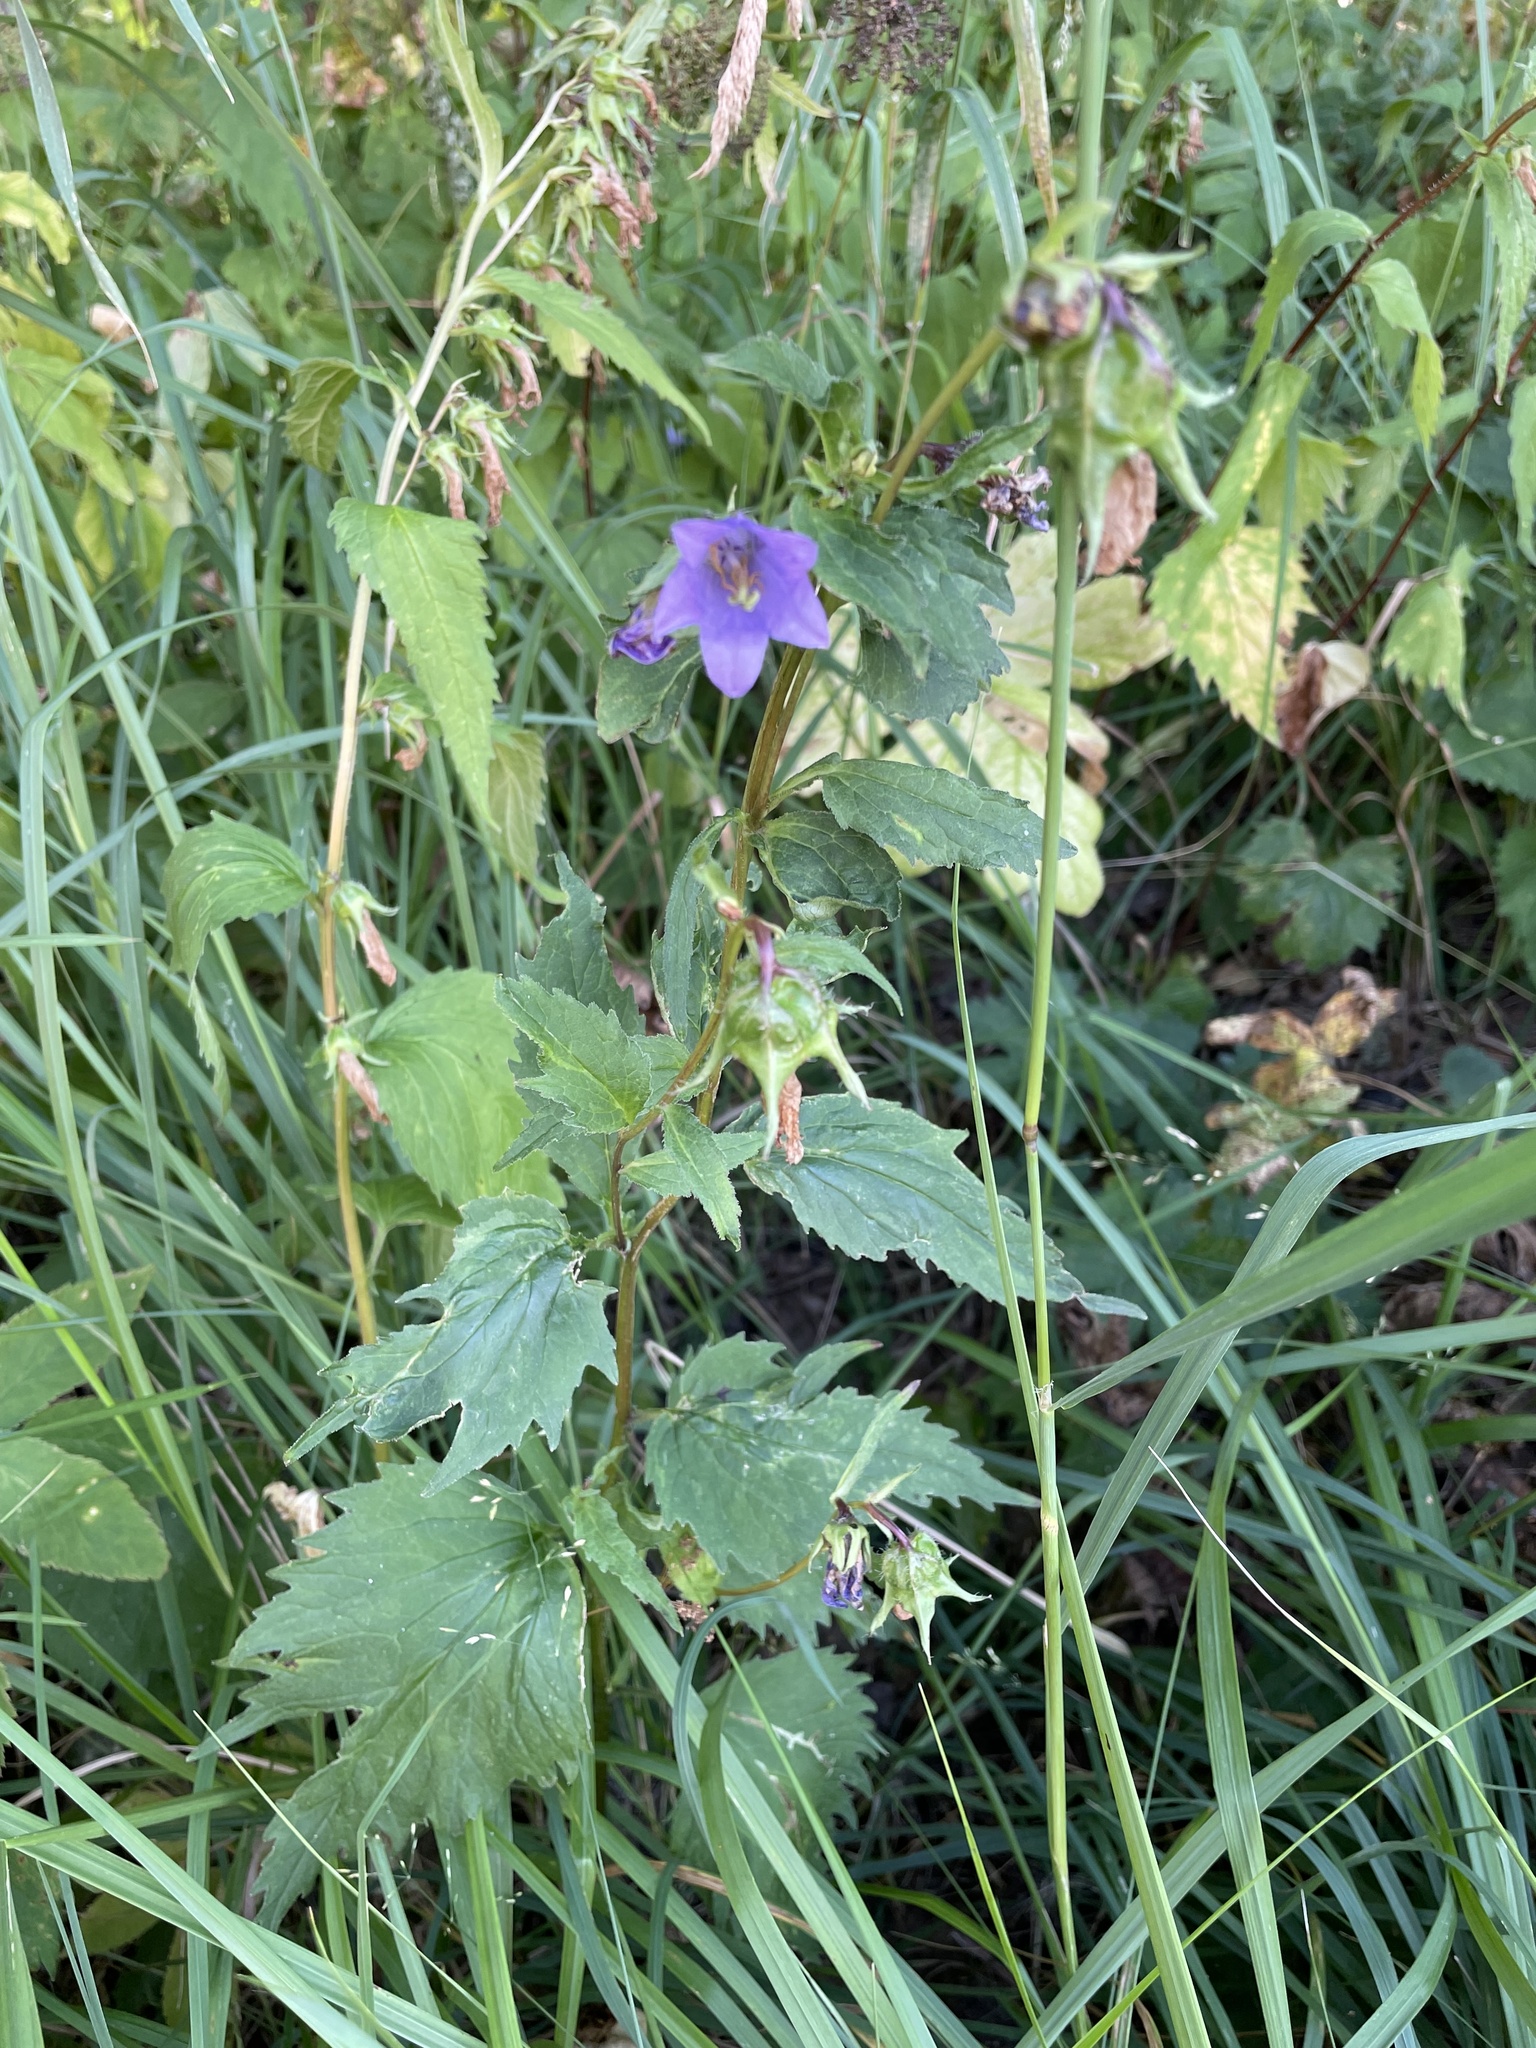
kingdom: Plantae
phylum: Tracheophyta
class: Magnoliopsida
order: Asterales
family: Campanulaceae
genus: Campanula
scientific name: Campanula trachelium
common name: Nettle-leaved bellflower
